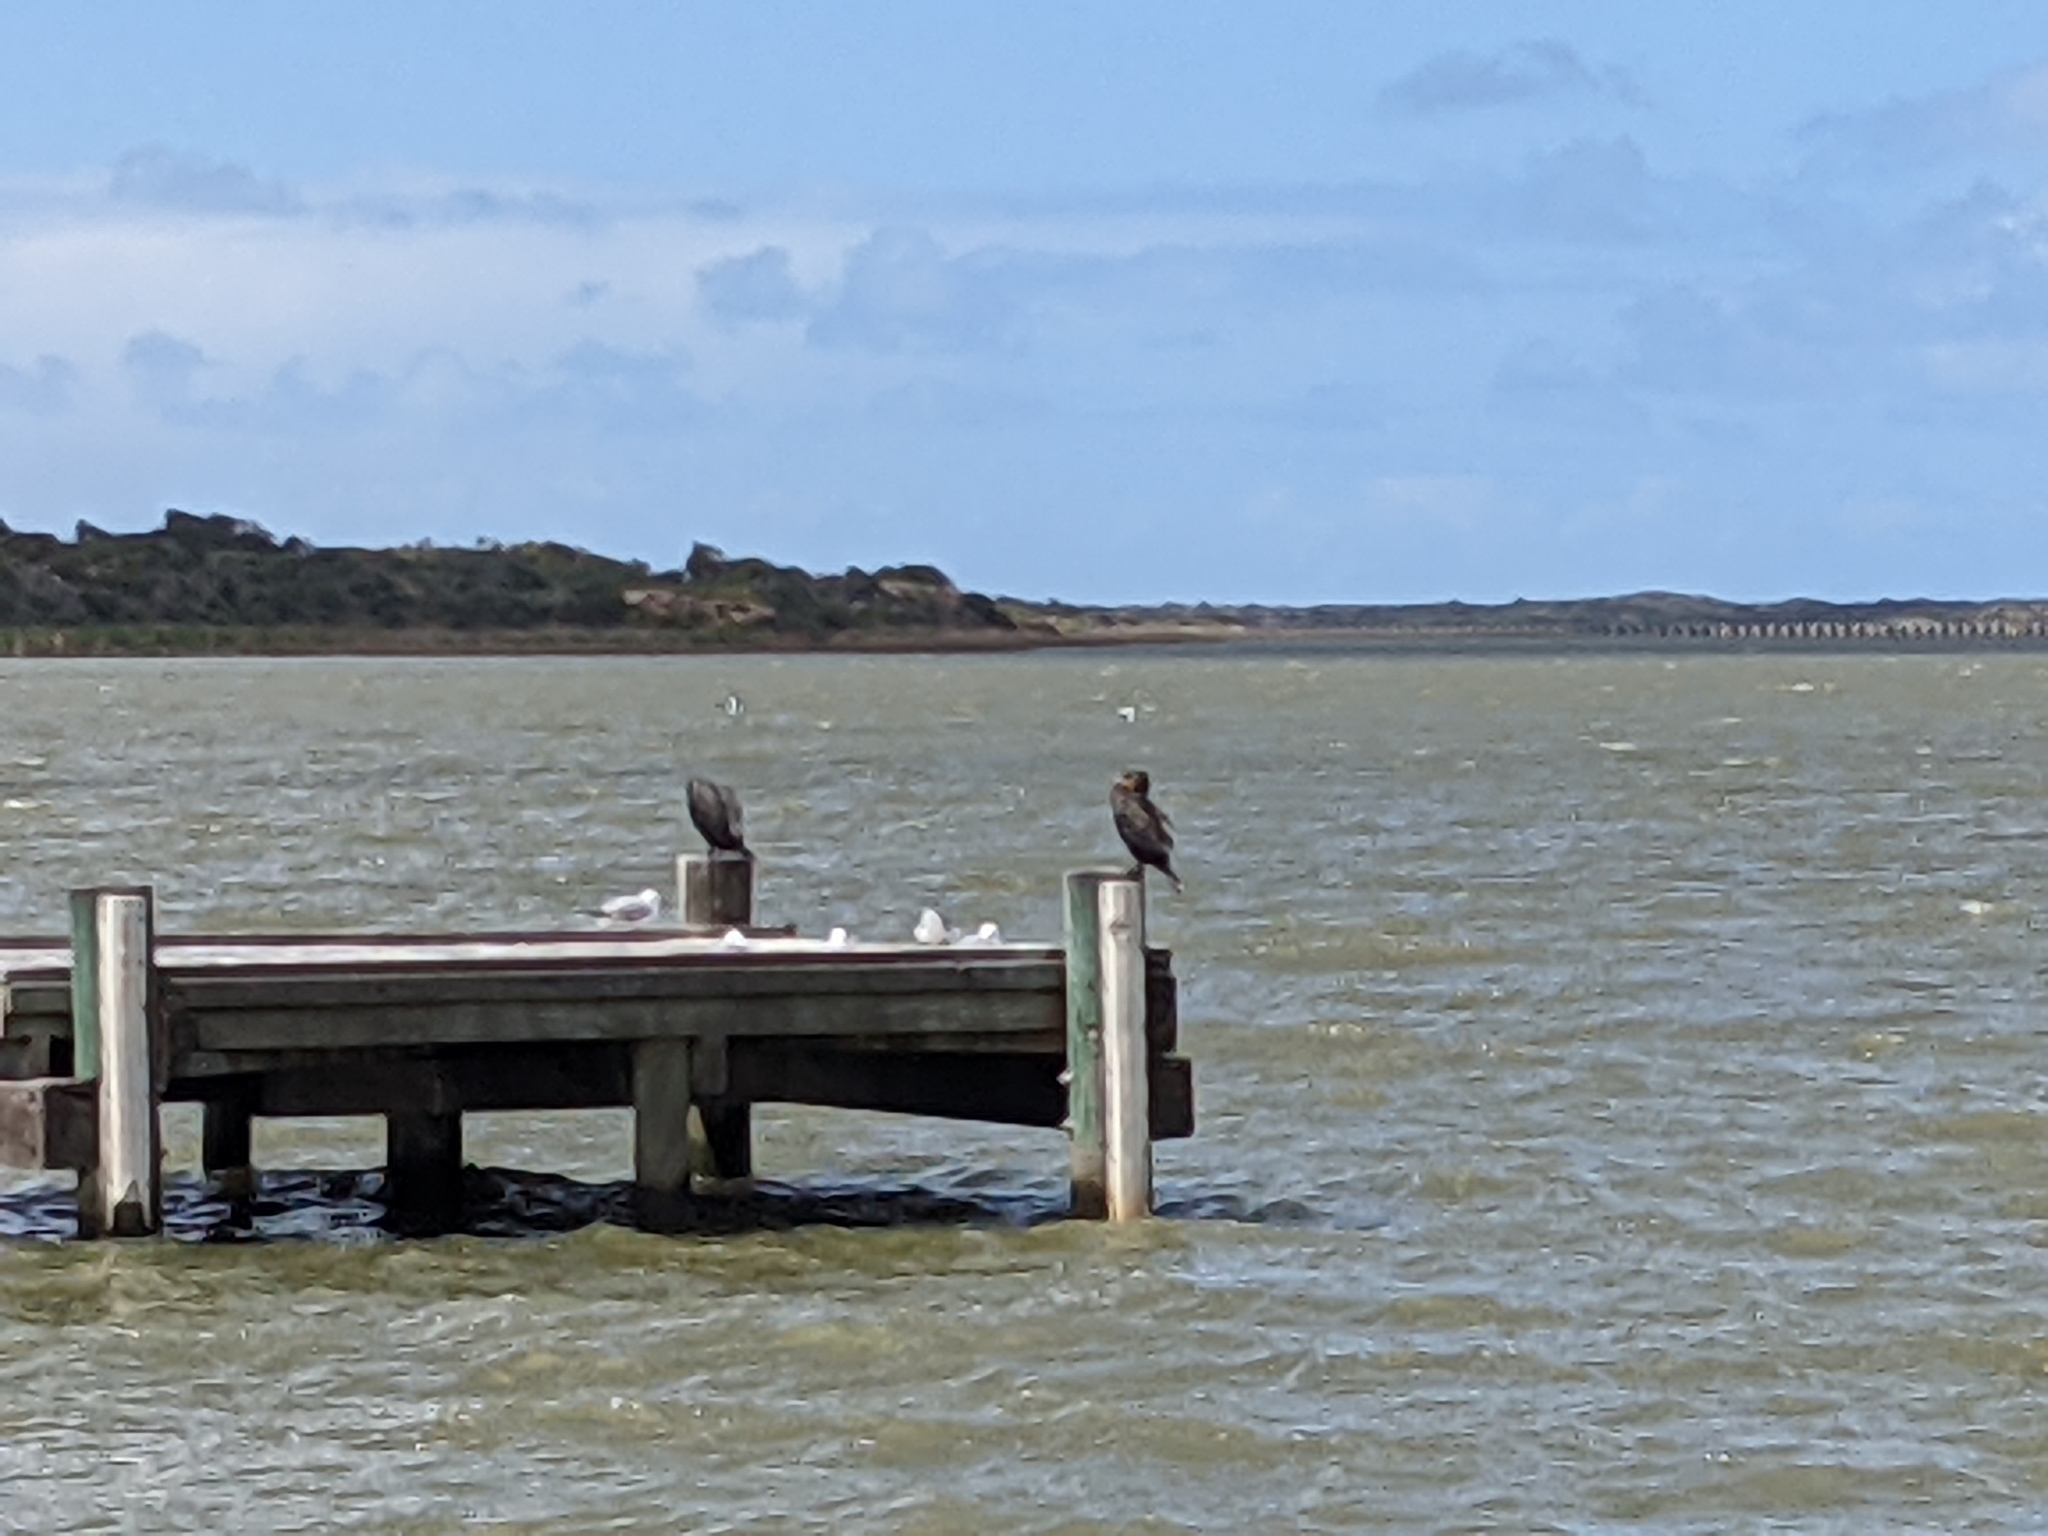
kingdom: Animalia
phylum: Chordata
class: Aves
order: Suliformes
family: Phalacrocoracidae
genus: Phalacrocorax
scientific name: Phalacrocorax carbo
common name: Great cormorant
